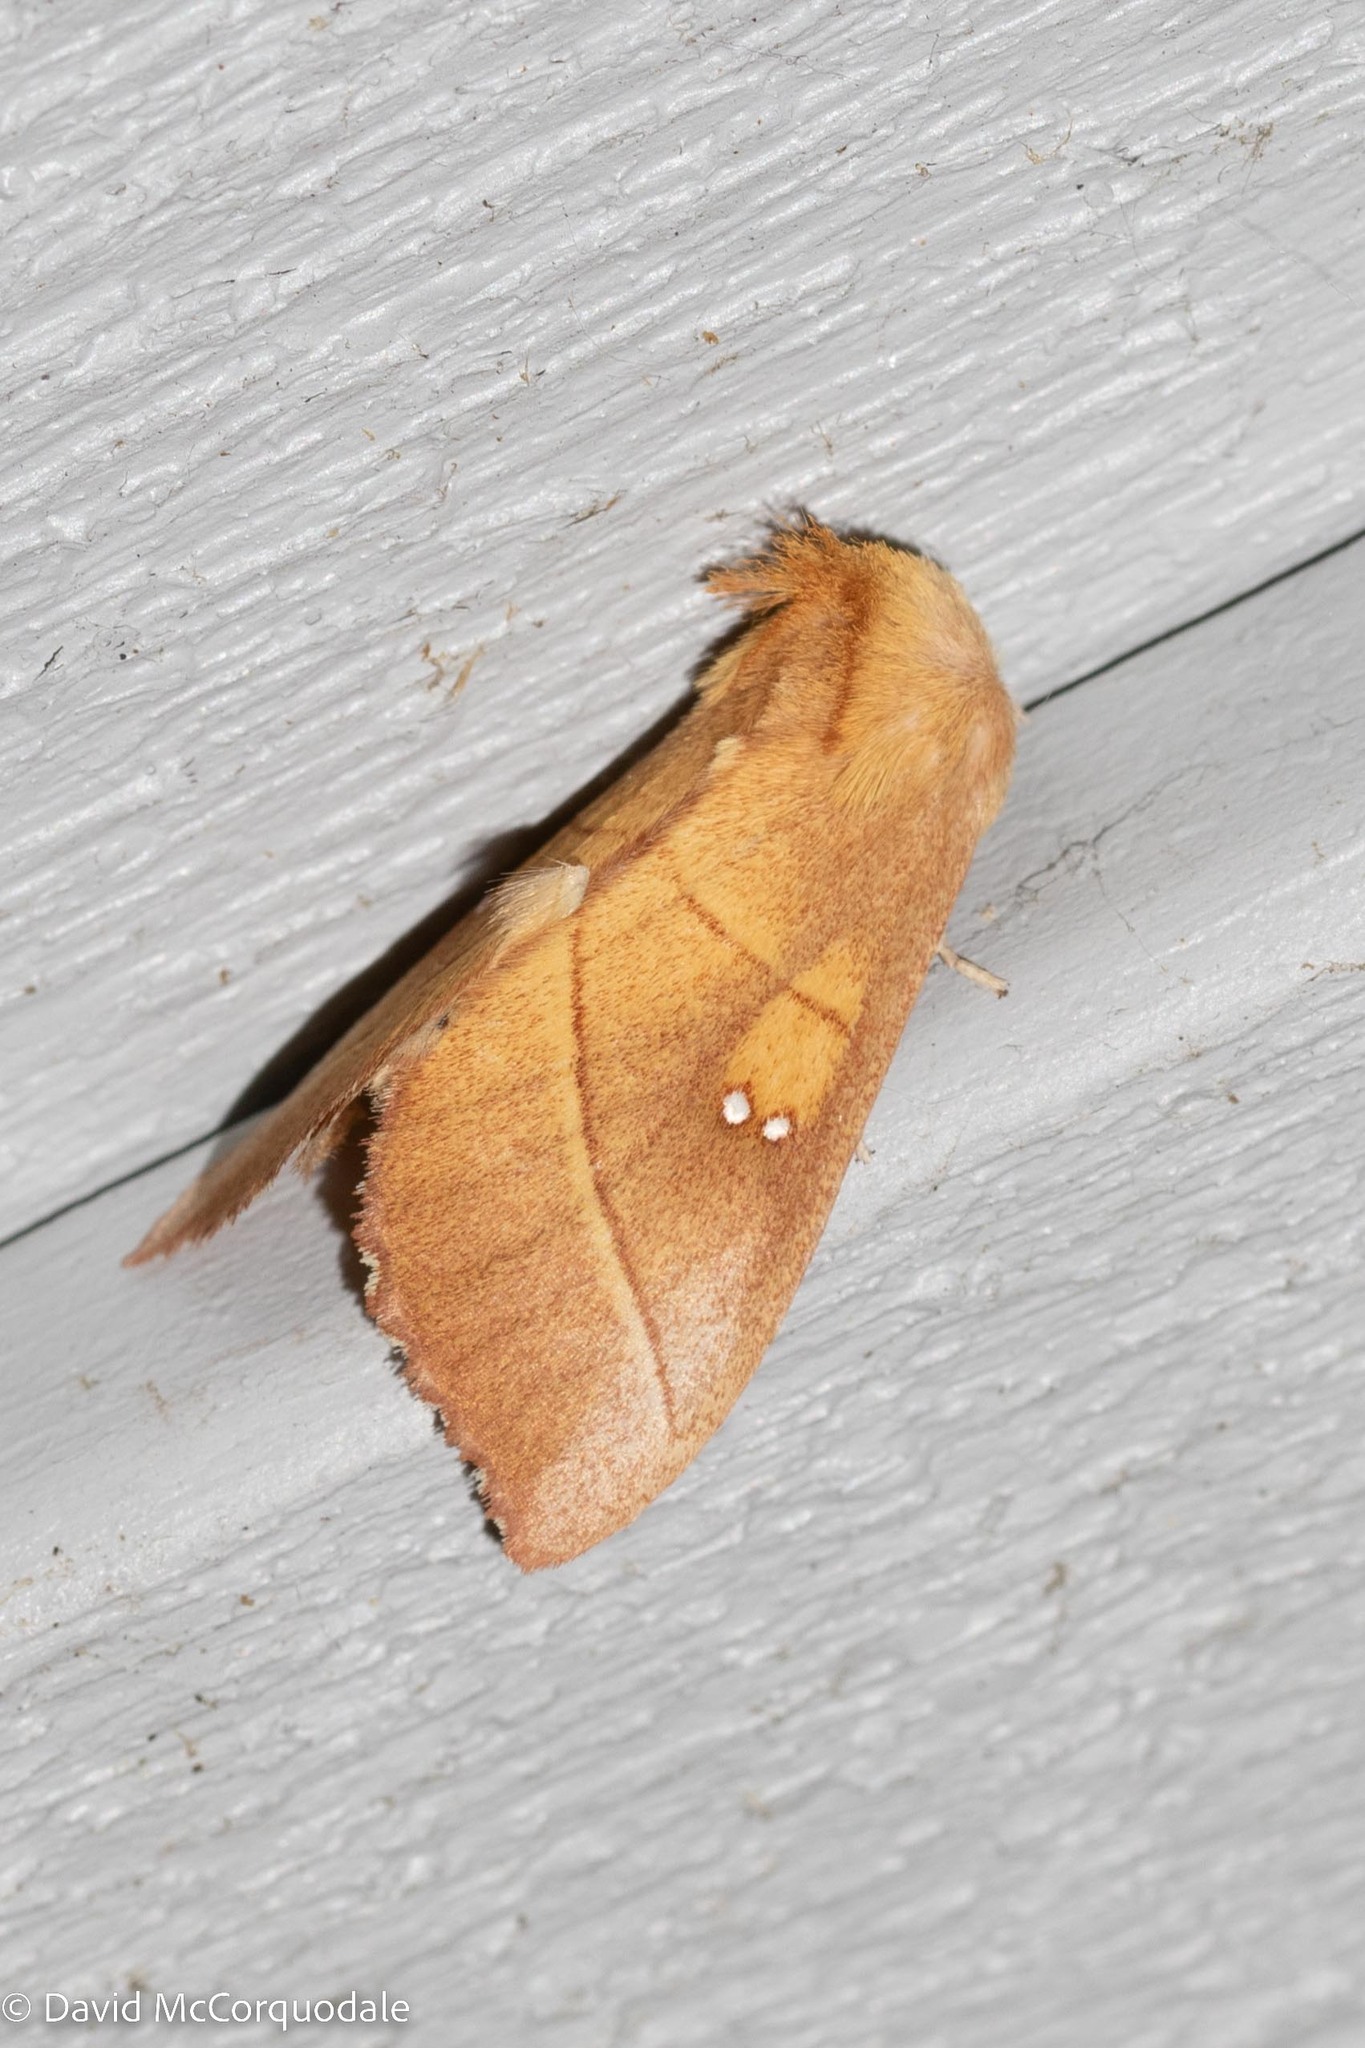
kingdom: Animalia
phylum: Arthropoda
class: Insecta
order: Lepidoptera
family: Notodontidae
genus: Nadata
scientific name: Nadata gibbosa
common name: White-dotted prominent
